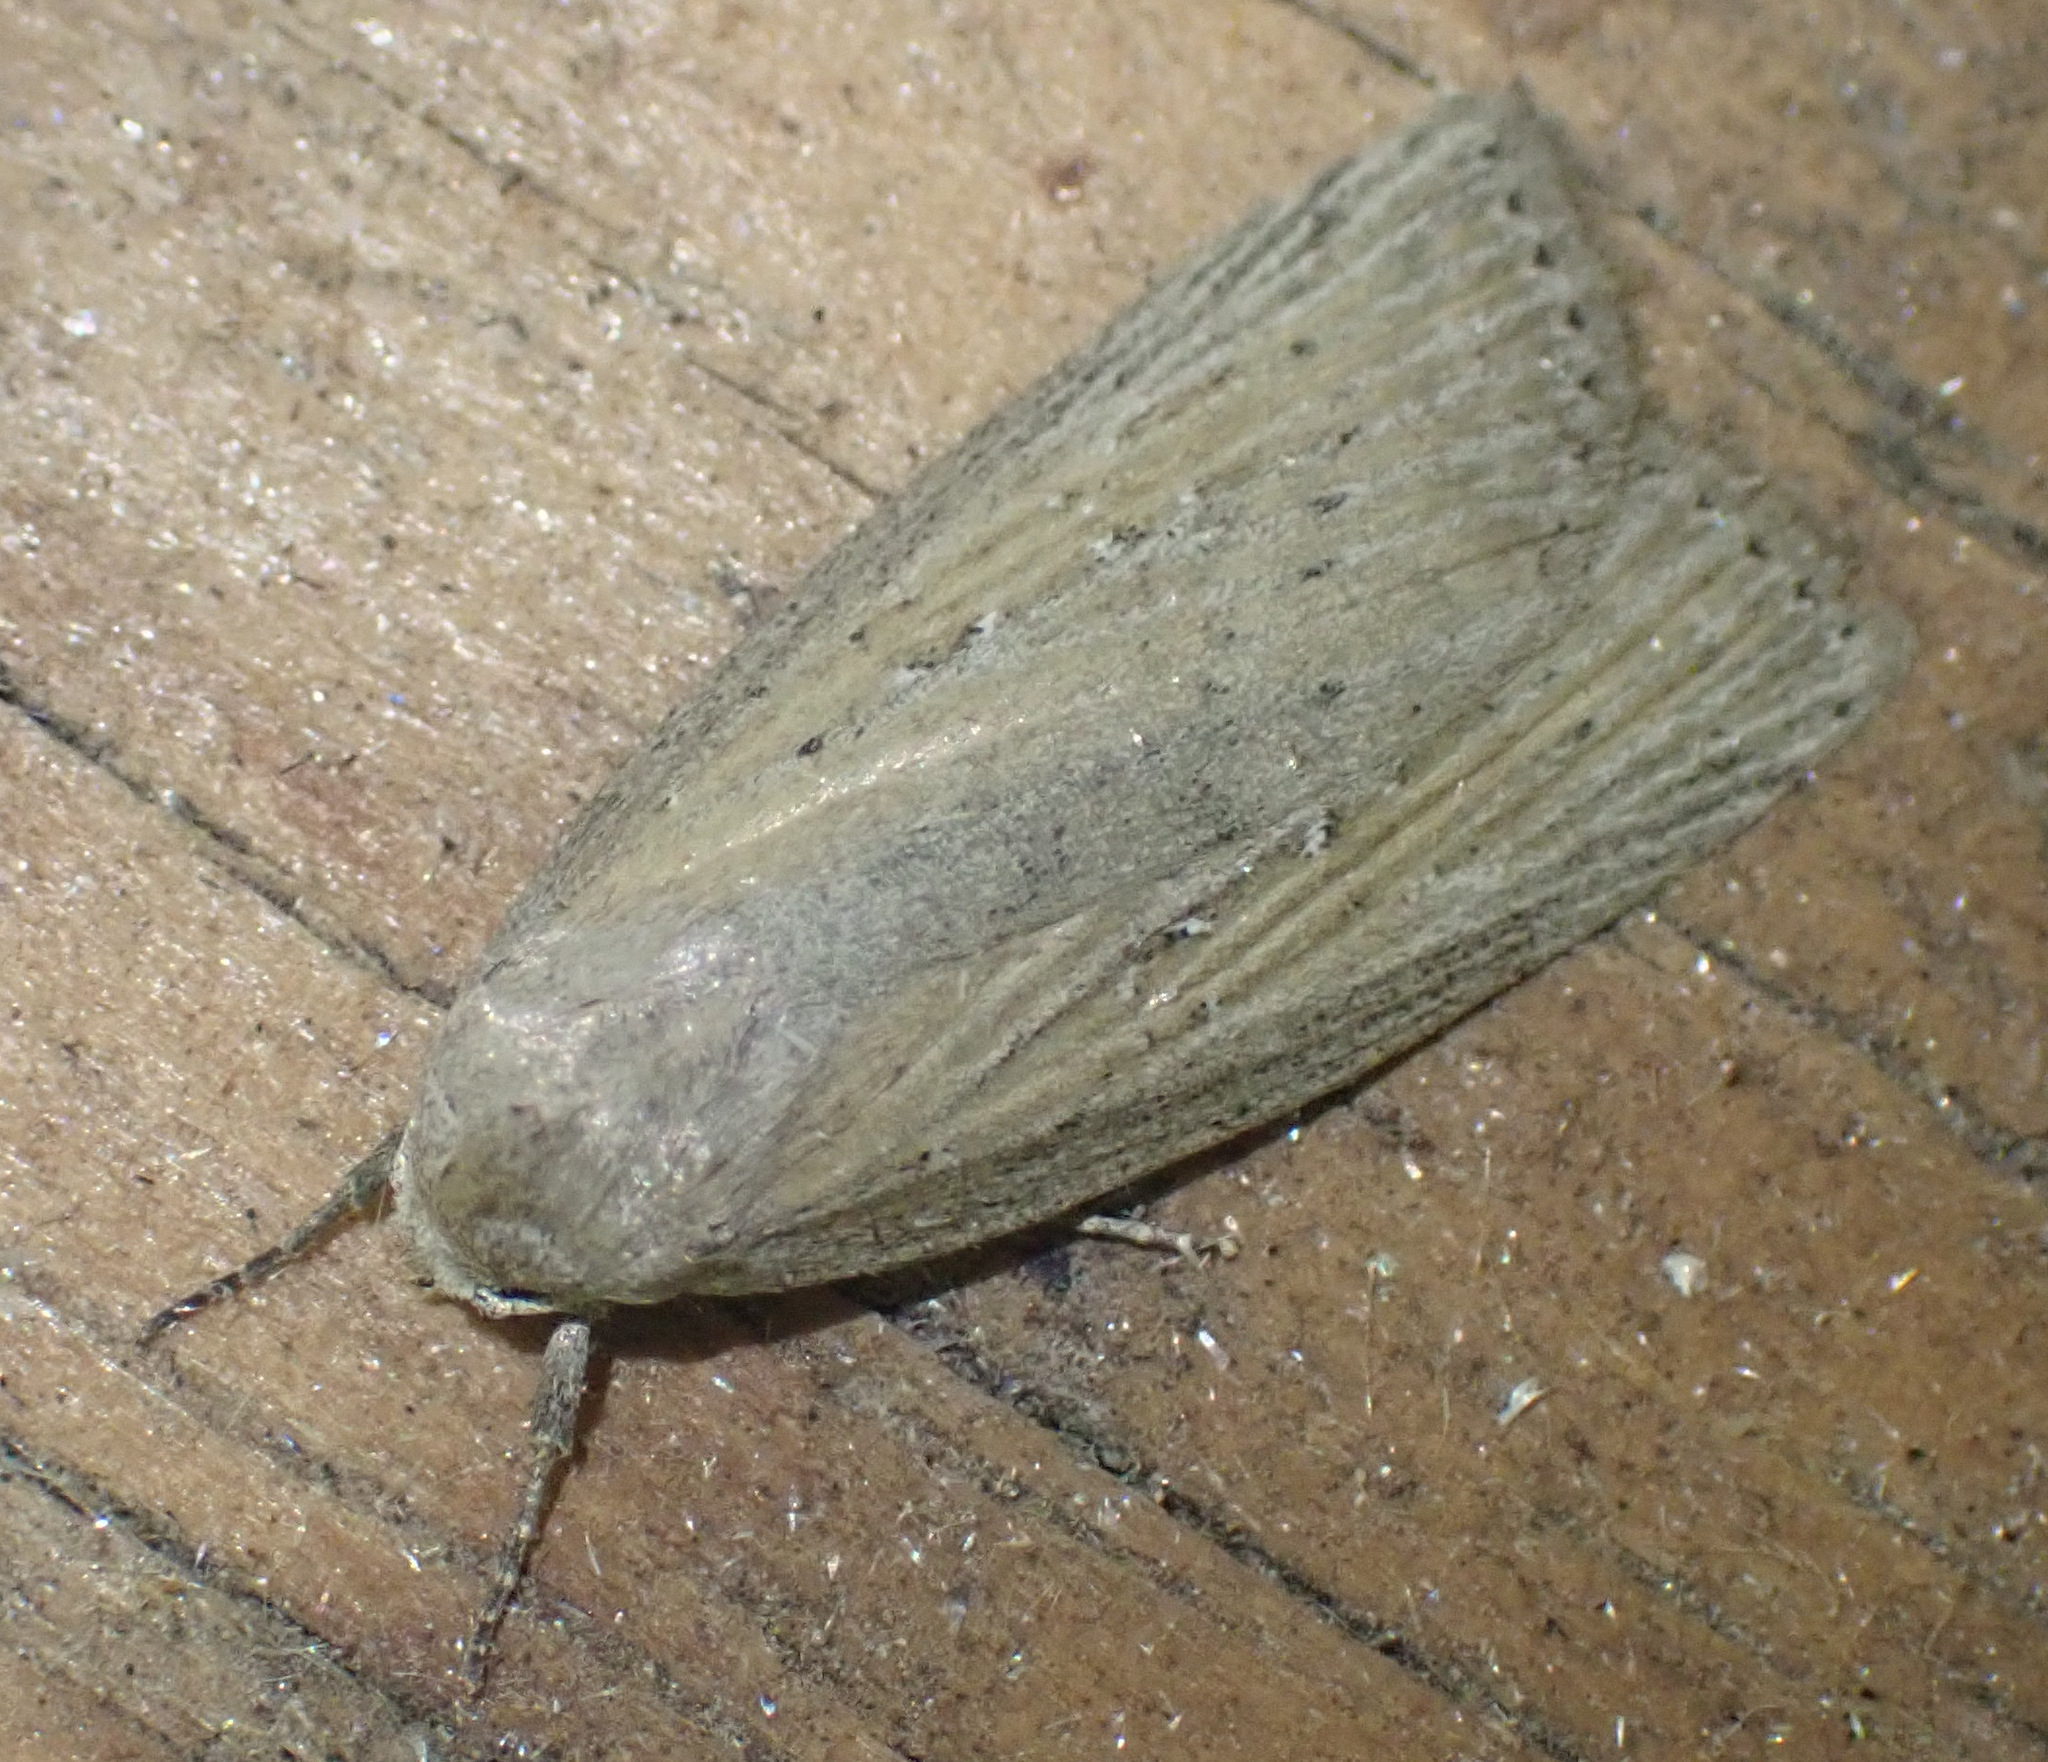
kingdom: Animalia
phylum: Arthropoda
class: Insecta
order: Lepidoptera
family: Noctuidae
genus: Chilodes
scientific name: Chilodes maritima
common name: Silky wainscot
